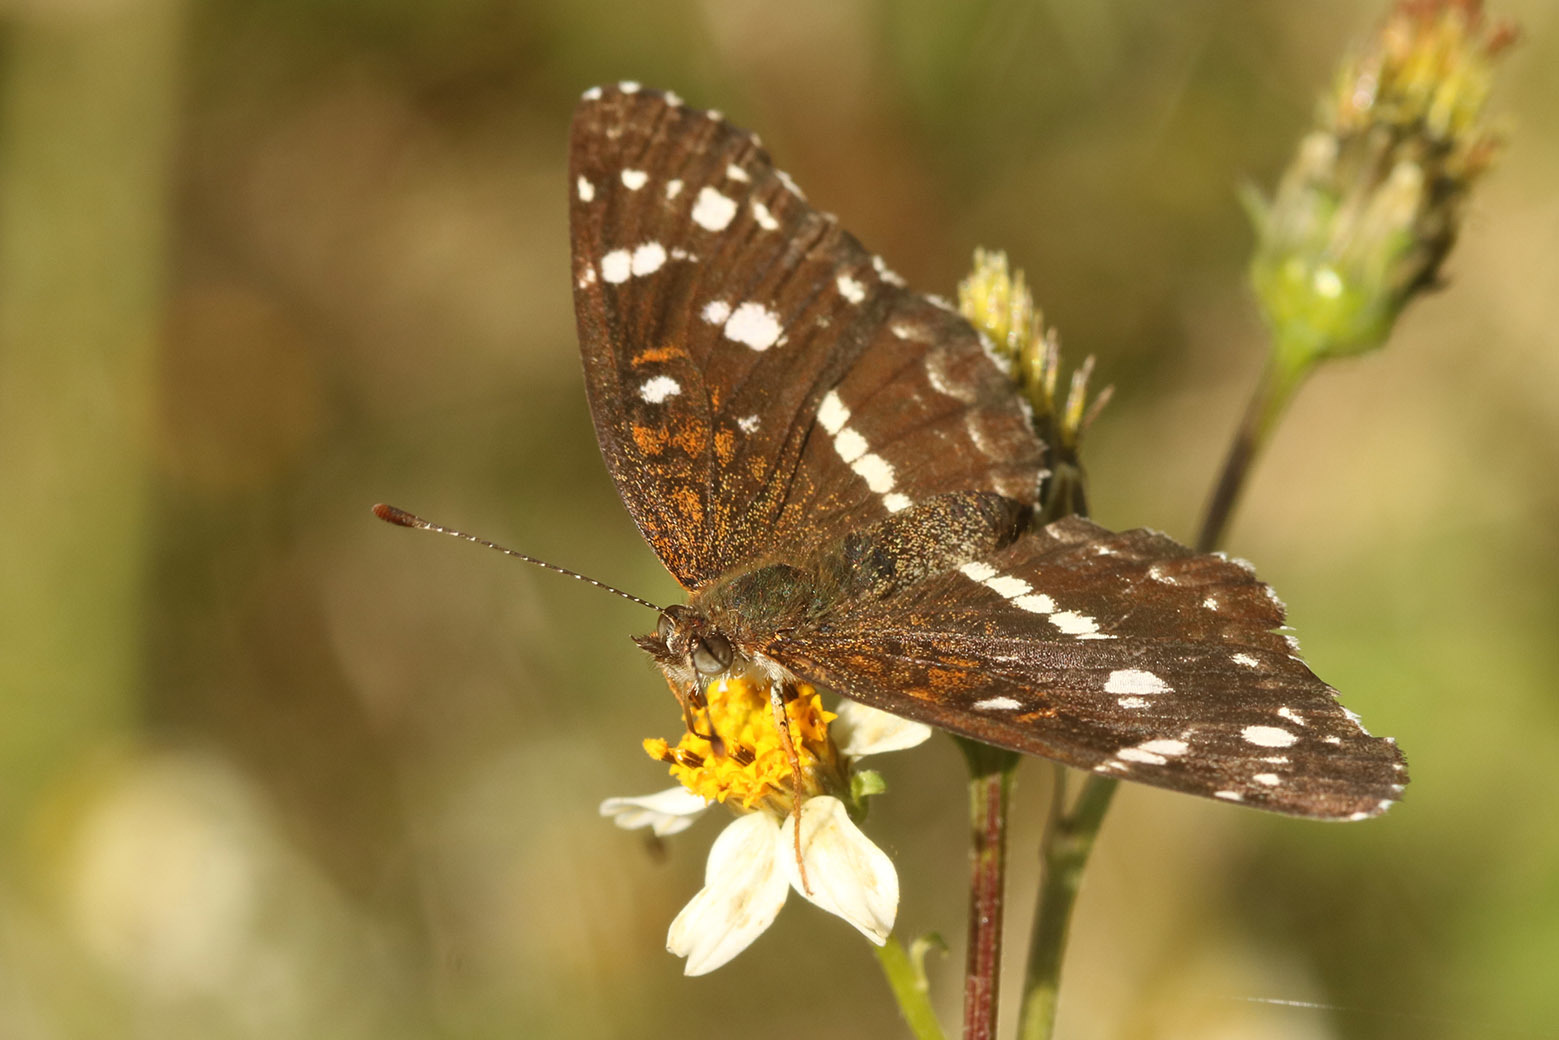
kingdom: Animalia
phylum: Arthropoda
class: Insecta
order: Lepidoptera
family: Nymphalidae
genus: Ortilia
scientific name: Ortilia ithra
